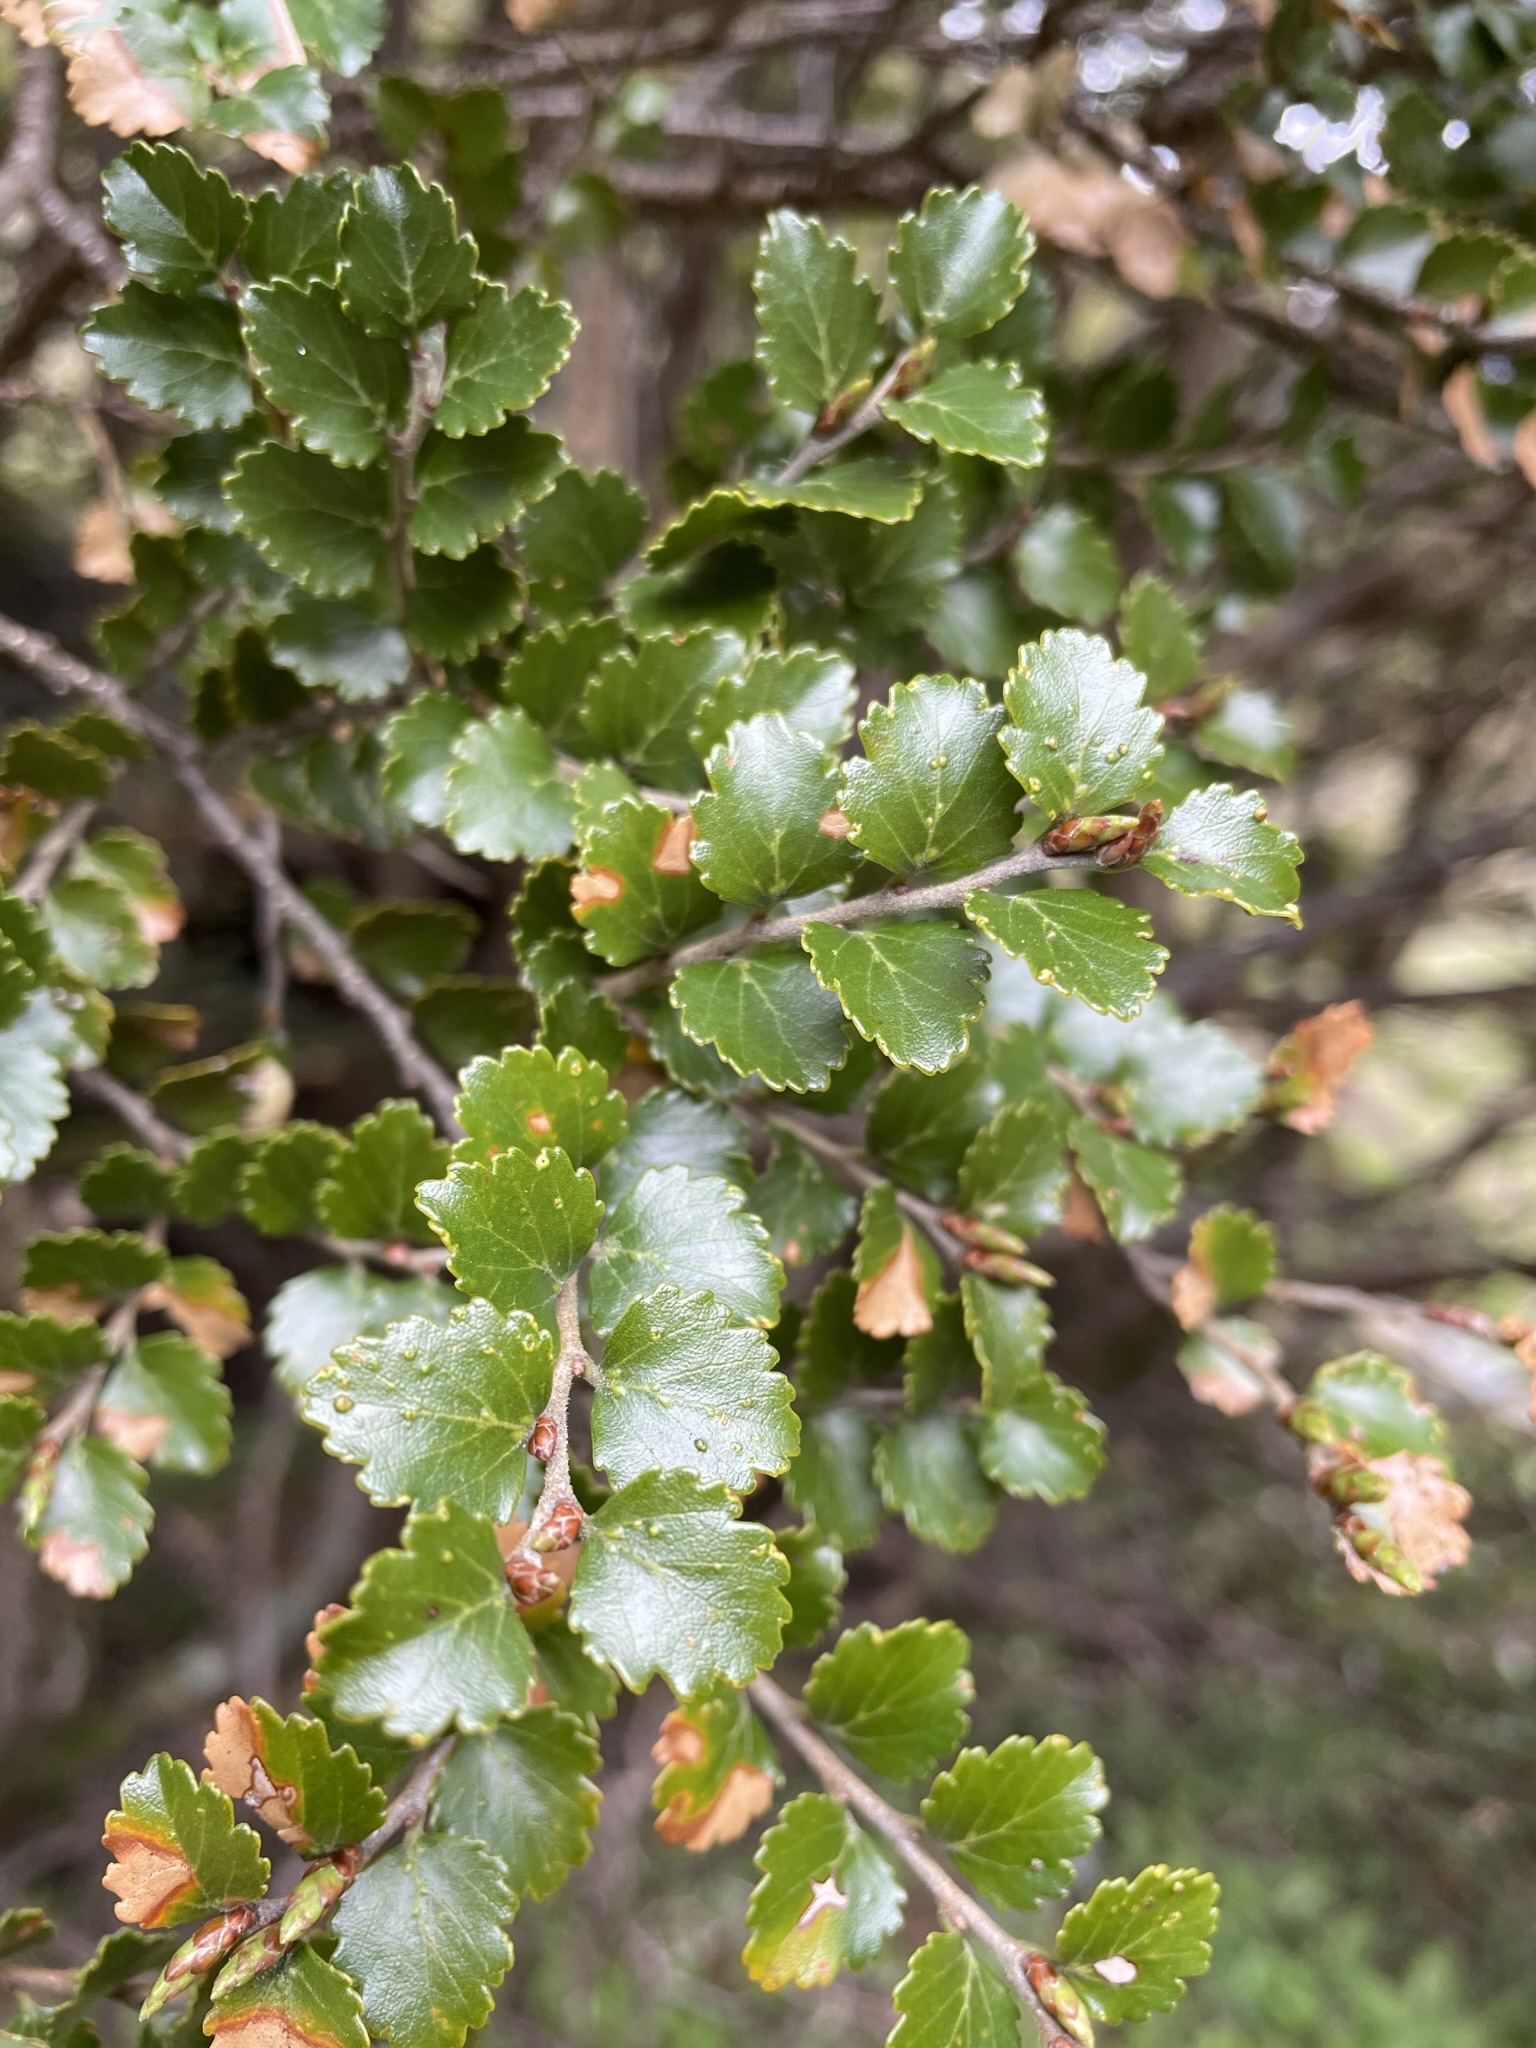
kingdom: Plantae
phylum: Tracheophyta
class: Magnoliopsida
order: Fagales
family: Nothofagaceae
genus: Nothofagus
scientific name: Nothofagus menziesii
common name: Silver beech
